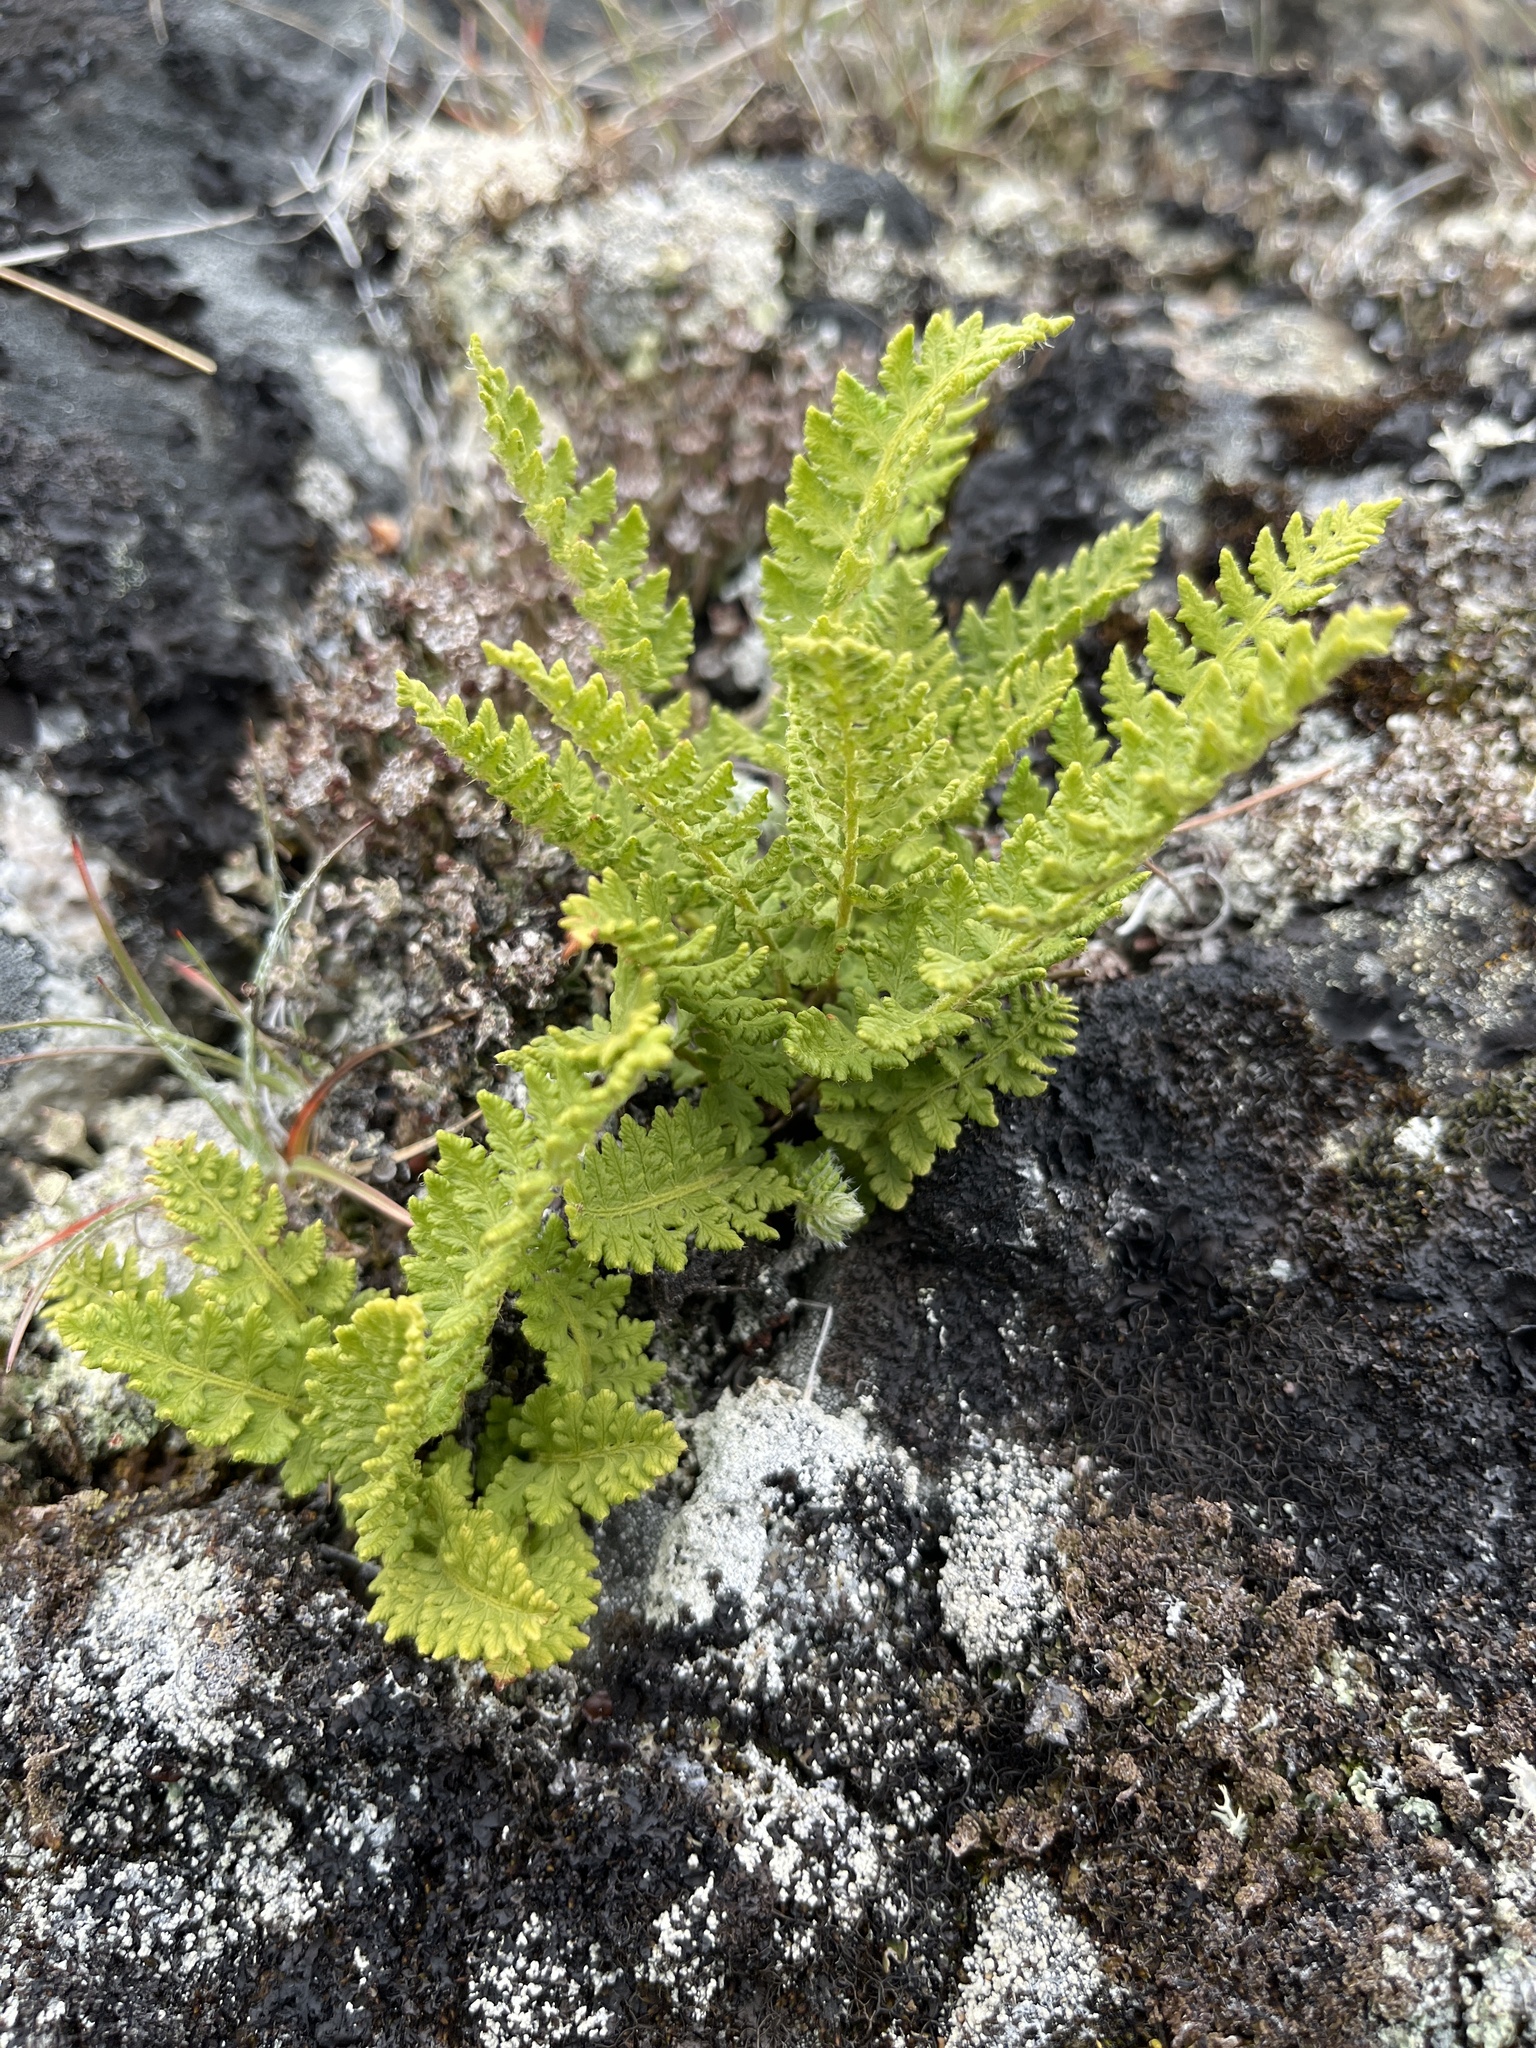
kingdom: Plantae
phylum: Tracheophyta
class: Polypodiopsida
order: Polypodiales
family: Woodsiaceae
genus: Woodsia
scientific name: Woodsia ilvensis
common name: Fragrant woodsia
